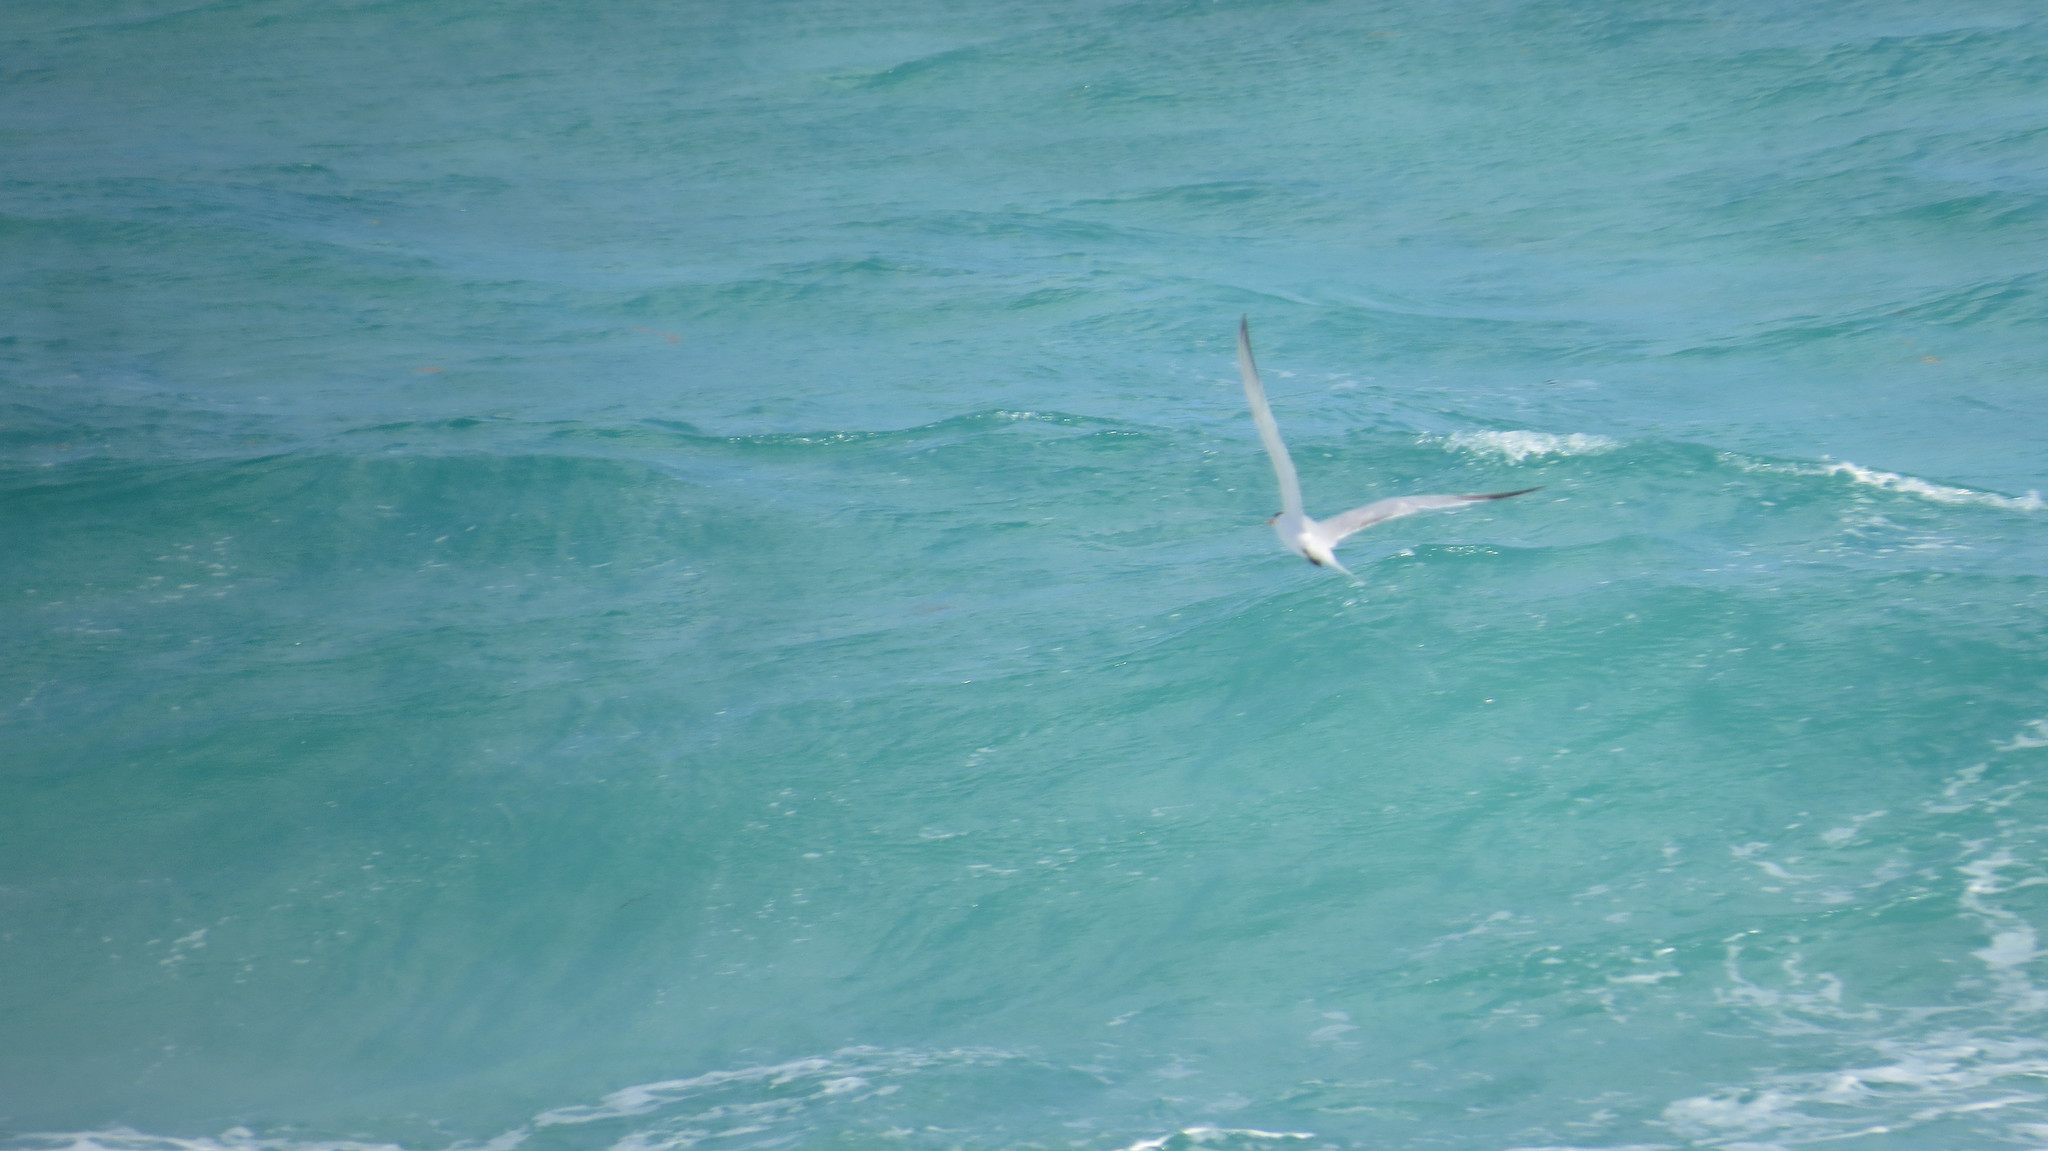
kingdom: Animalia
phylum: Chordata
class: Aves
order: Charadriiformes
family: Laridae
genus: Thalasseus
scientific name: Thalasseus maximus
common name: Royal tern
